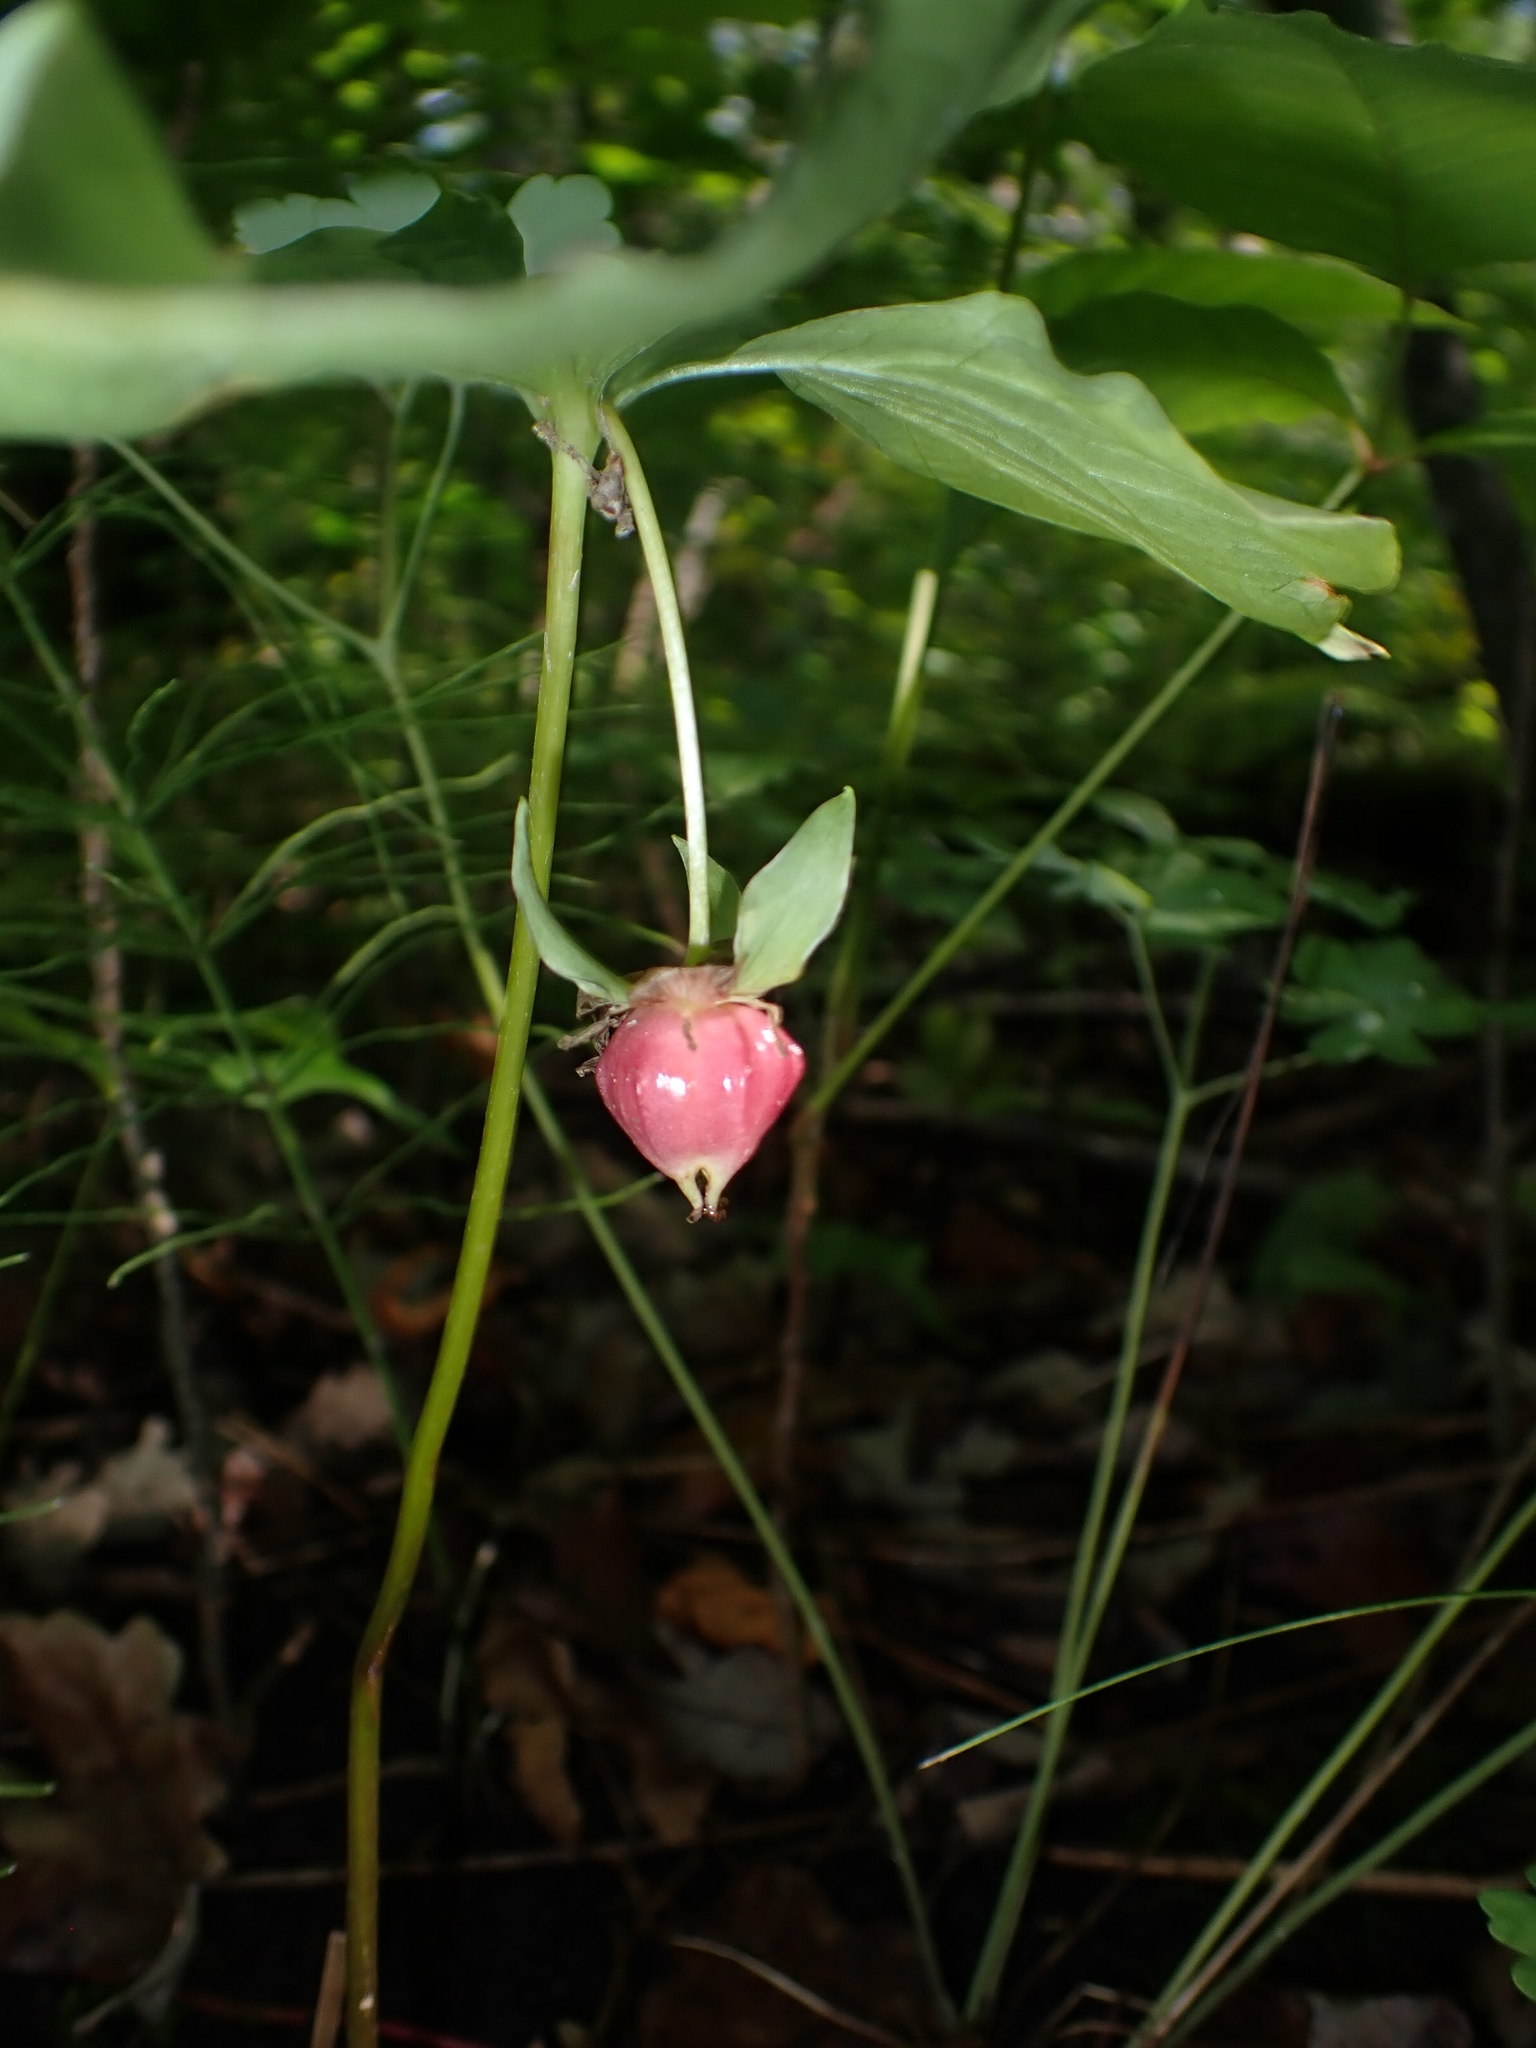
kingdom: Plantae
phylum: Tracheophyta
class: Liliopsida
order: Liliales
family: Melanthiaceae
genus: Trillium
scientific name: Trillium cernuum
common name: Nodding trillium
